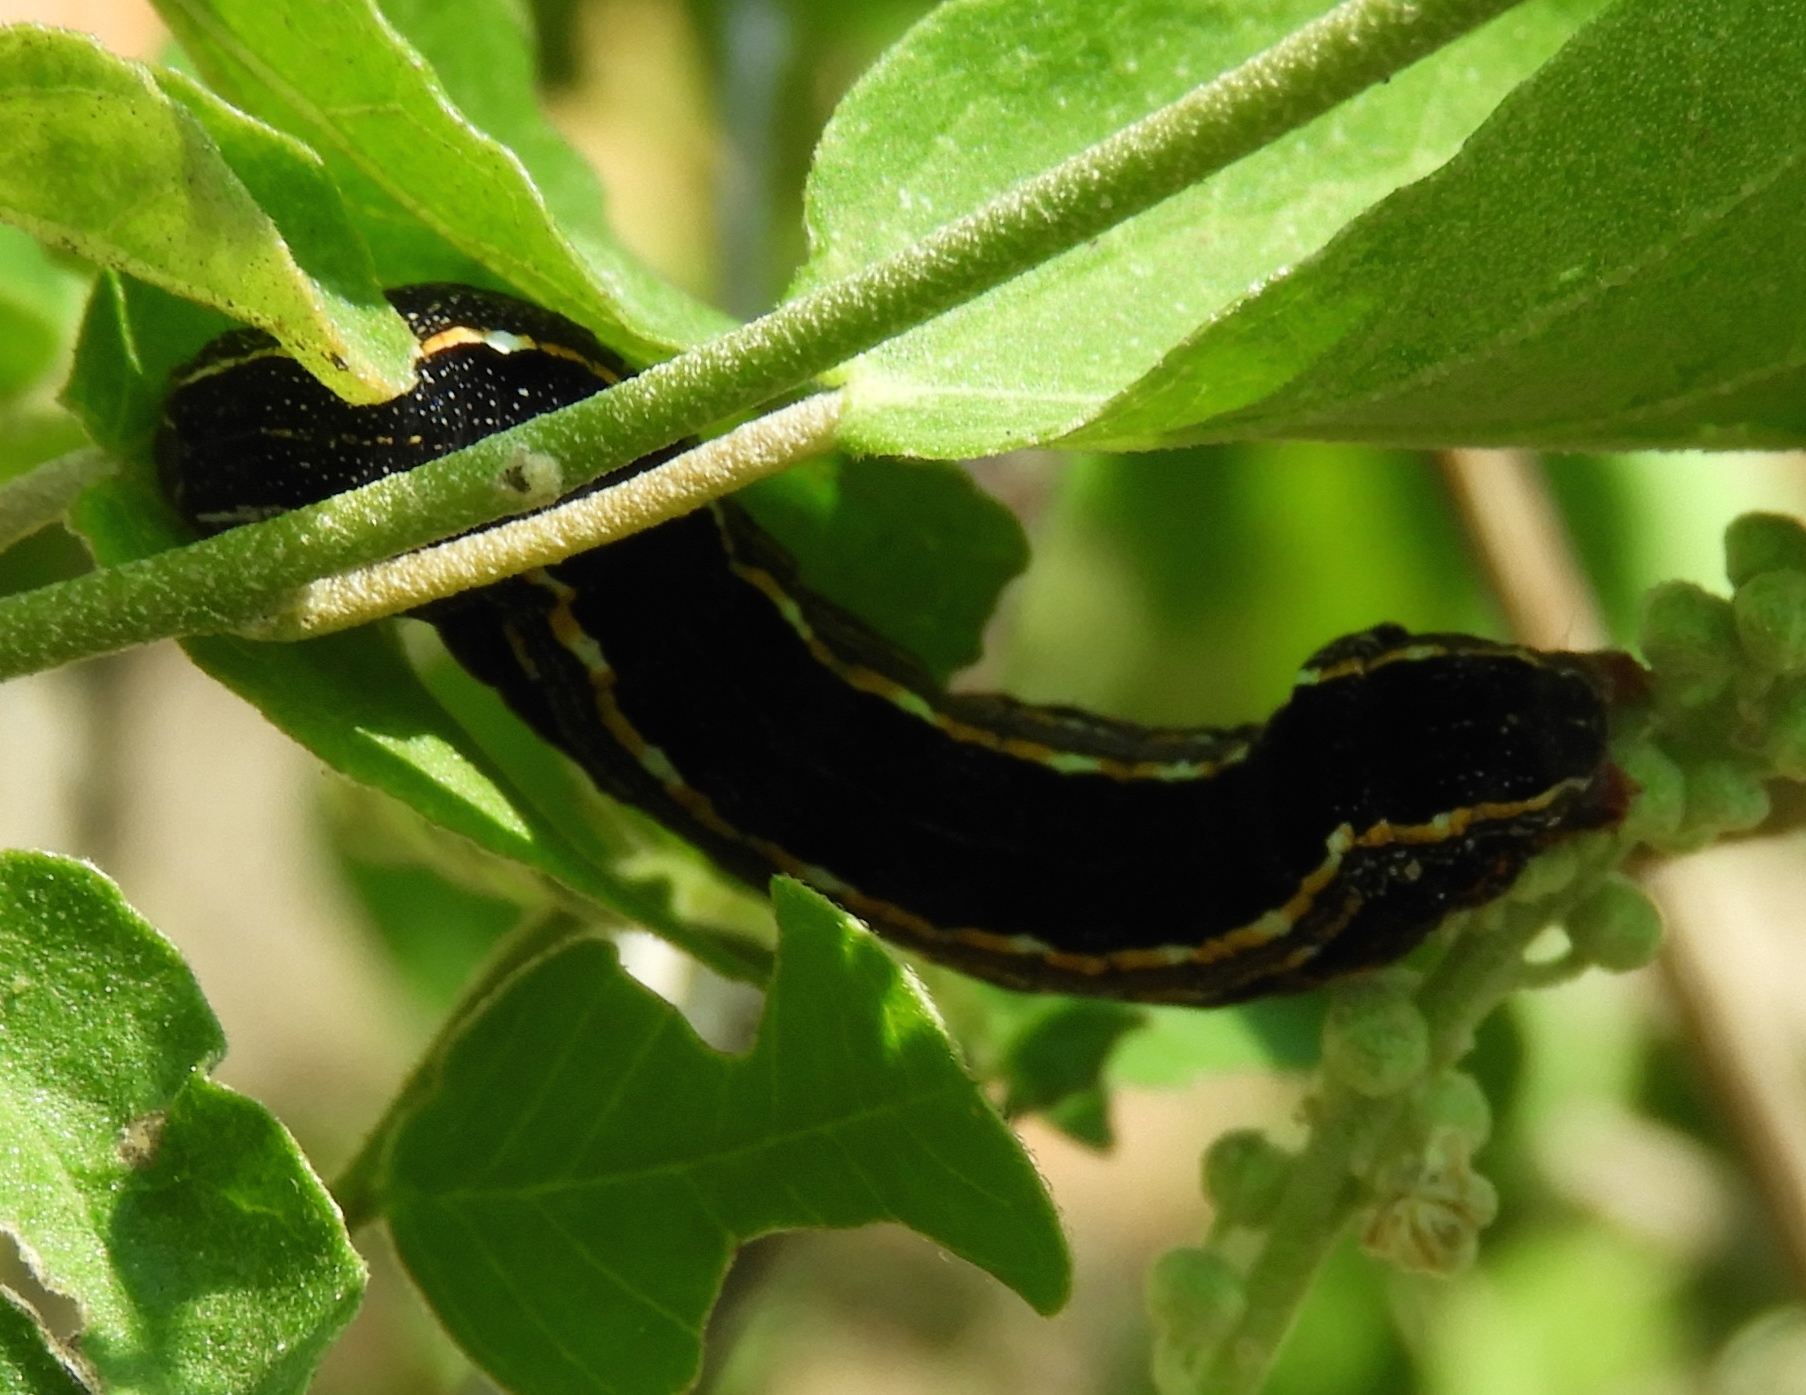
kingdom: Animalia
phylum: Arthropoda
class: Insecta
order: Lepidoptera
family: Noctuidae
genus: Spodoptera
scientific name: Spodoptera
